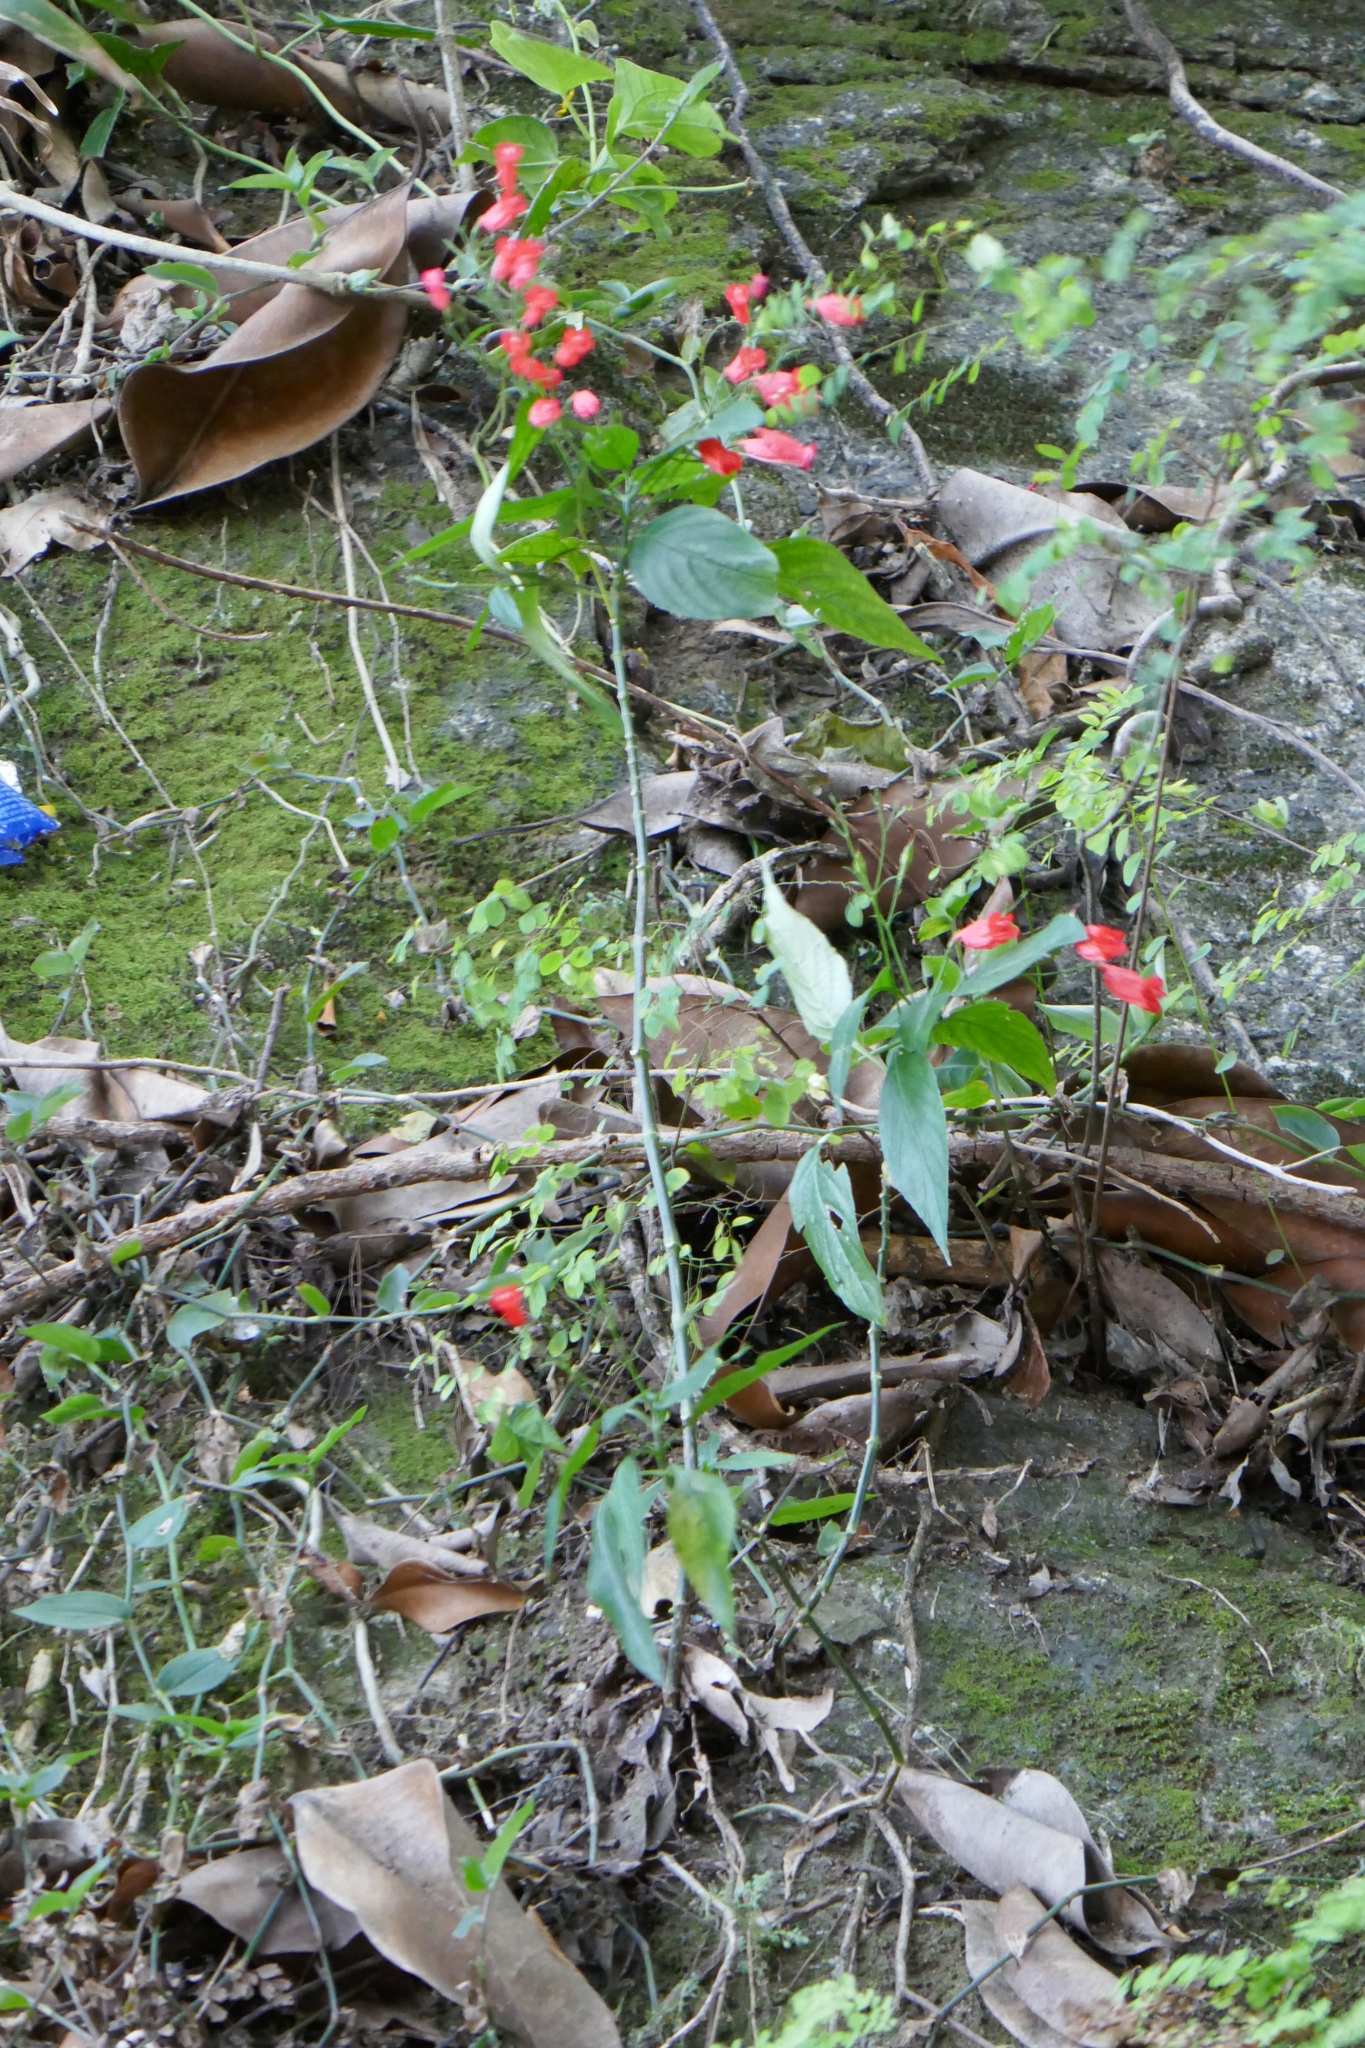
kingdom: Plantae
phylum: Tracheophyta
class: Magnoliopsida
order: Lamiales
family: Acanthaceae
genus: Ruellia
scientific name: Ruellia brevifolia
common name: Tropical wild petunia
